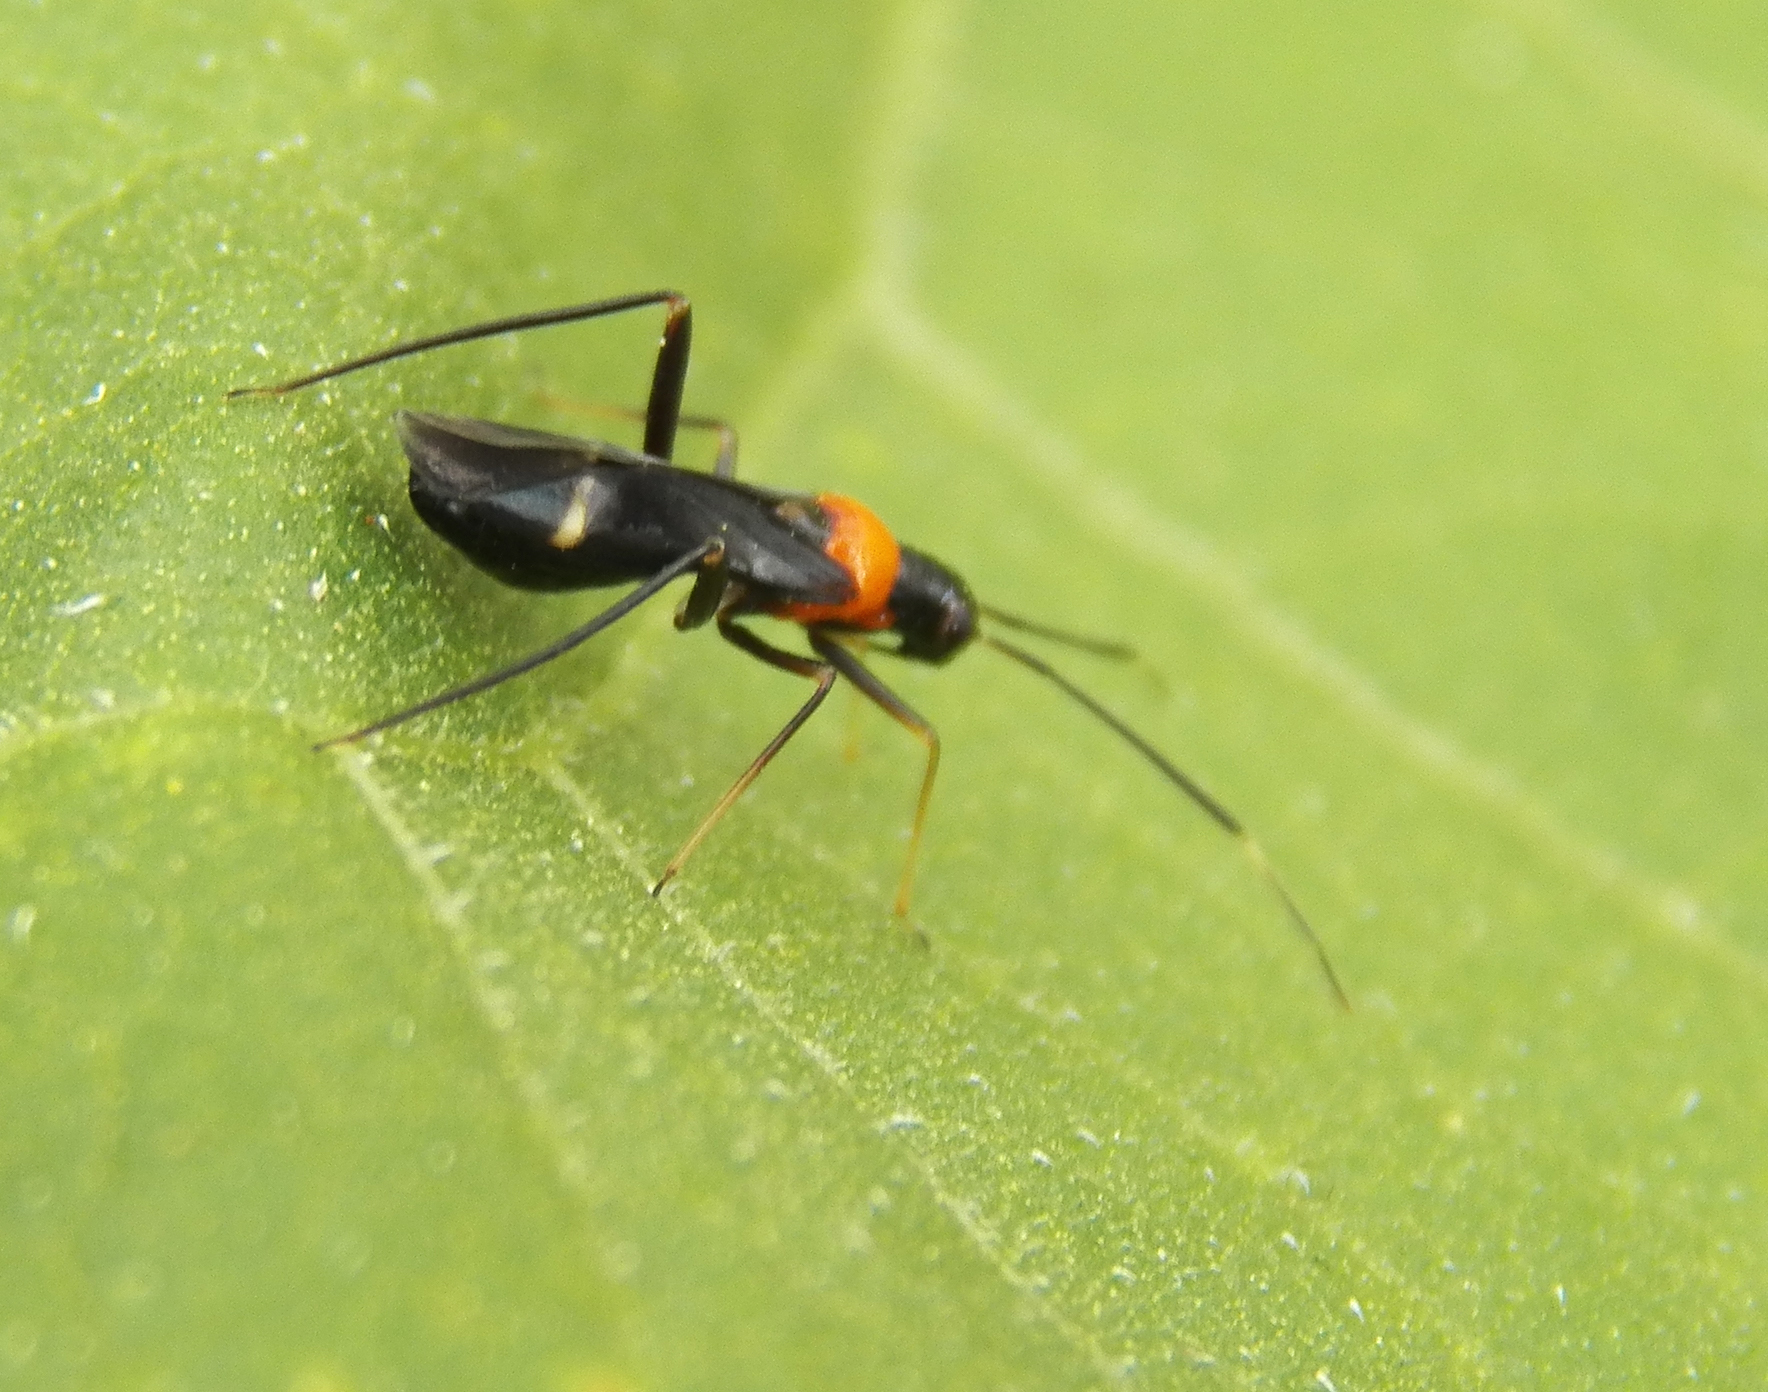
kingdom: Animalia
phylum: Arthropoda
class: Insecta
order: Hemiptera
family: Miridae
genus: Pseudoxenetus
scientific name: Pseudoxenetus regalis
